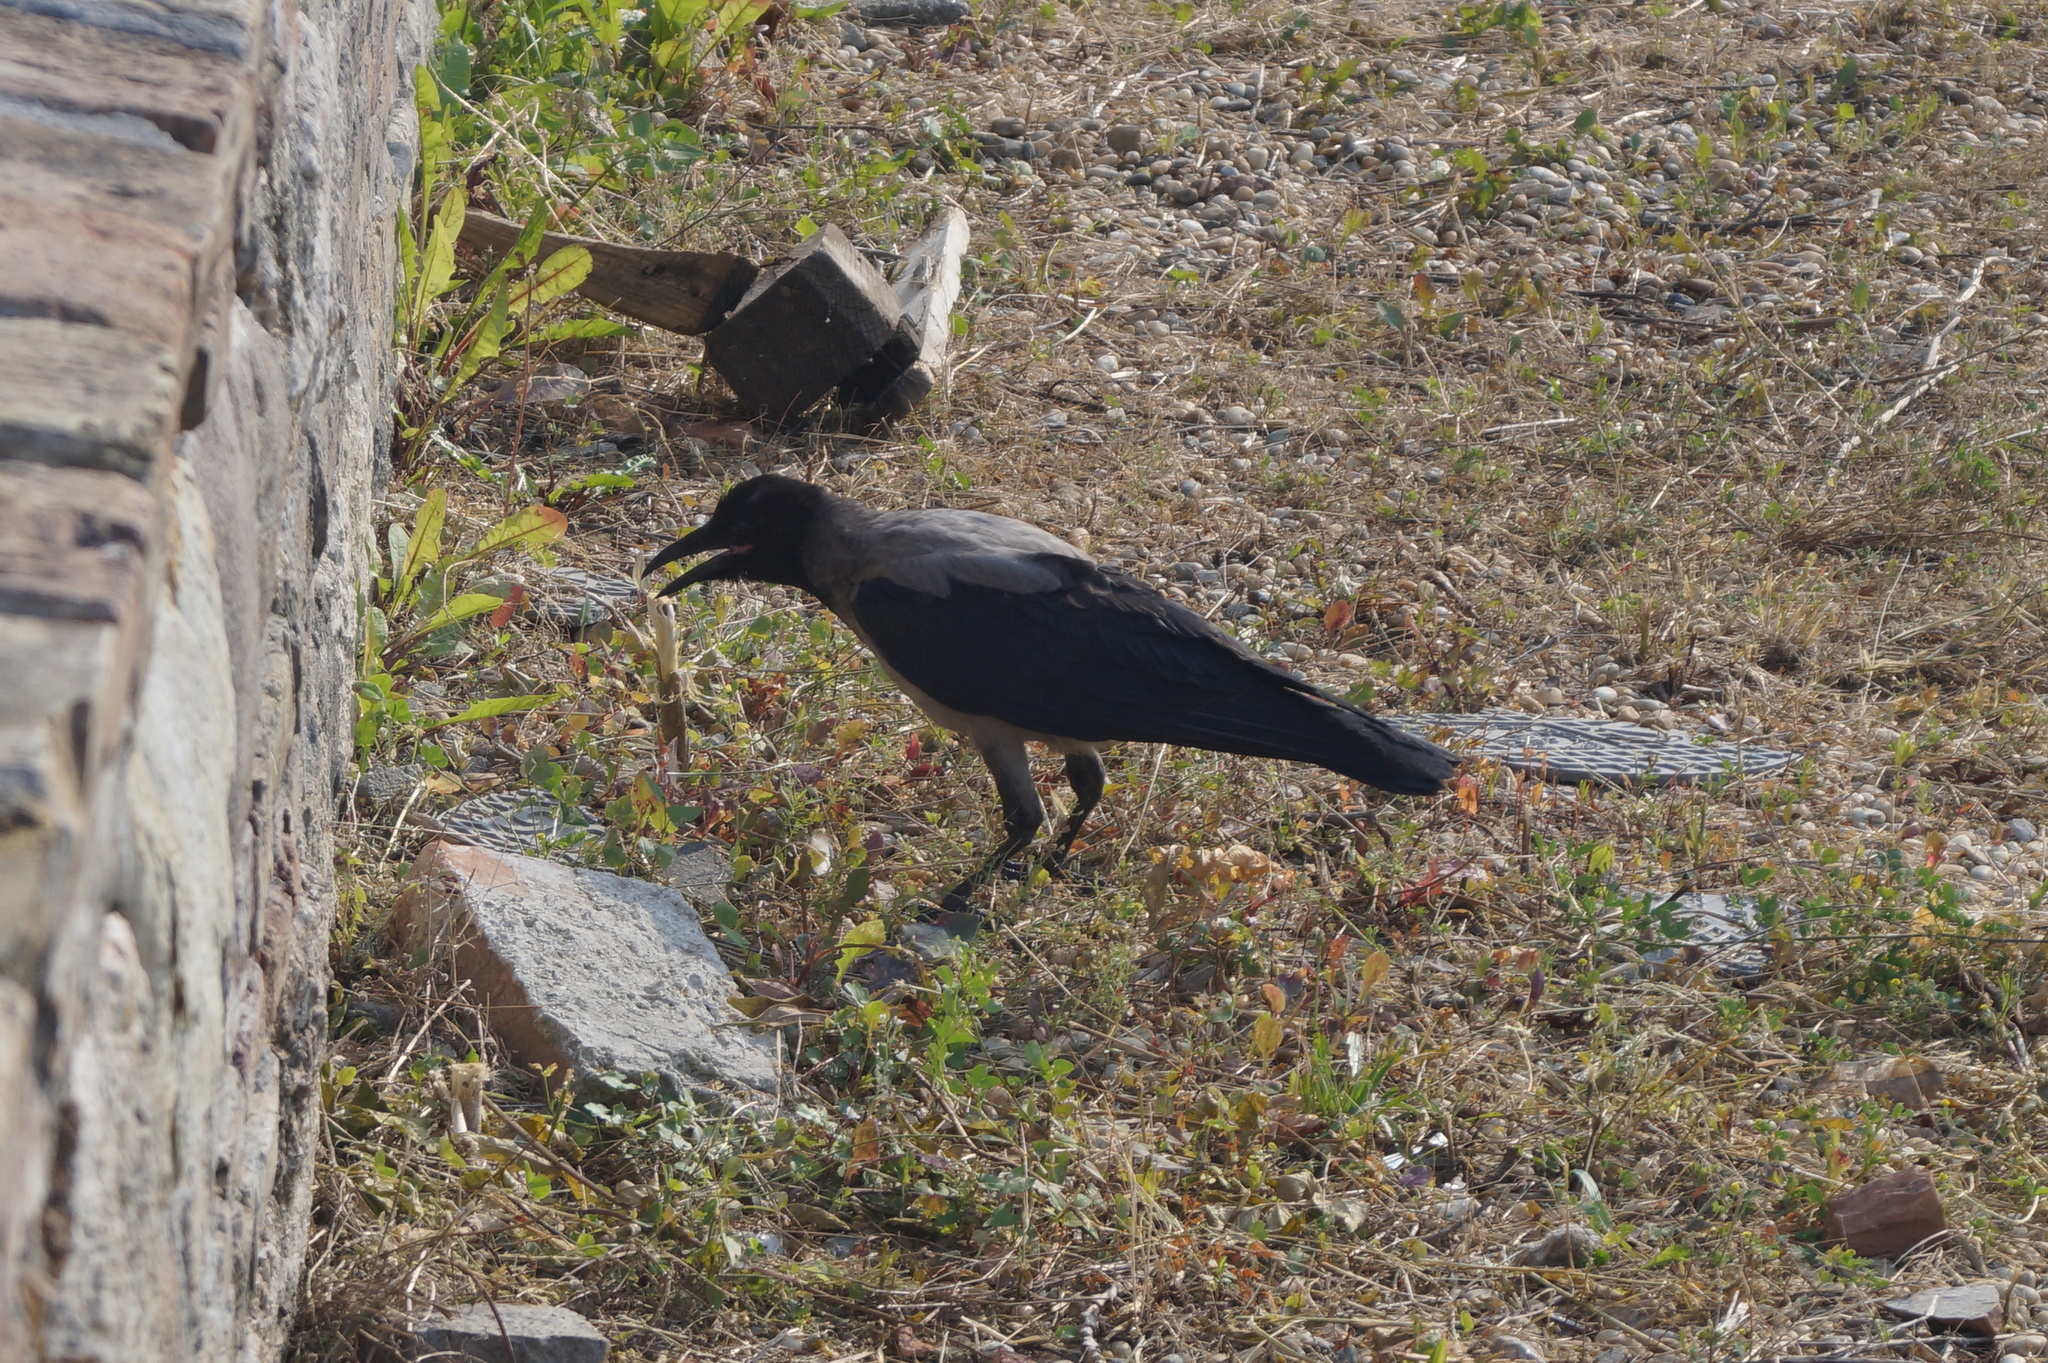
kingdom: Animalia
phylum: Chordata
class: Aves
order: Passeriformes
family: Corvidae
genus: Corvus
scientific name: Corvus cornix
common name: Hooded crow
